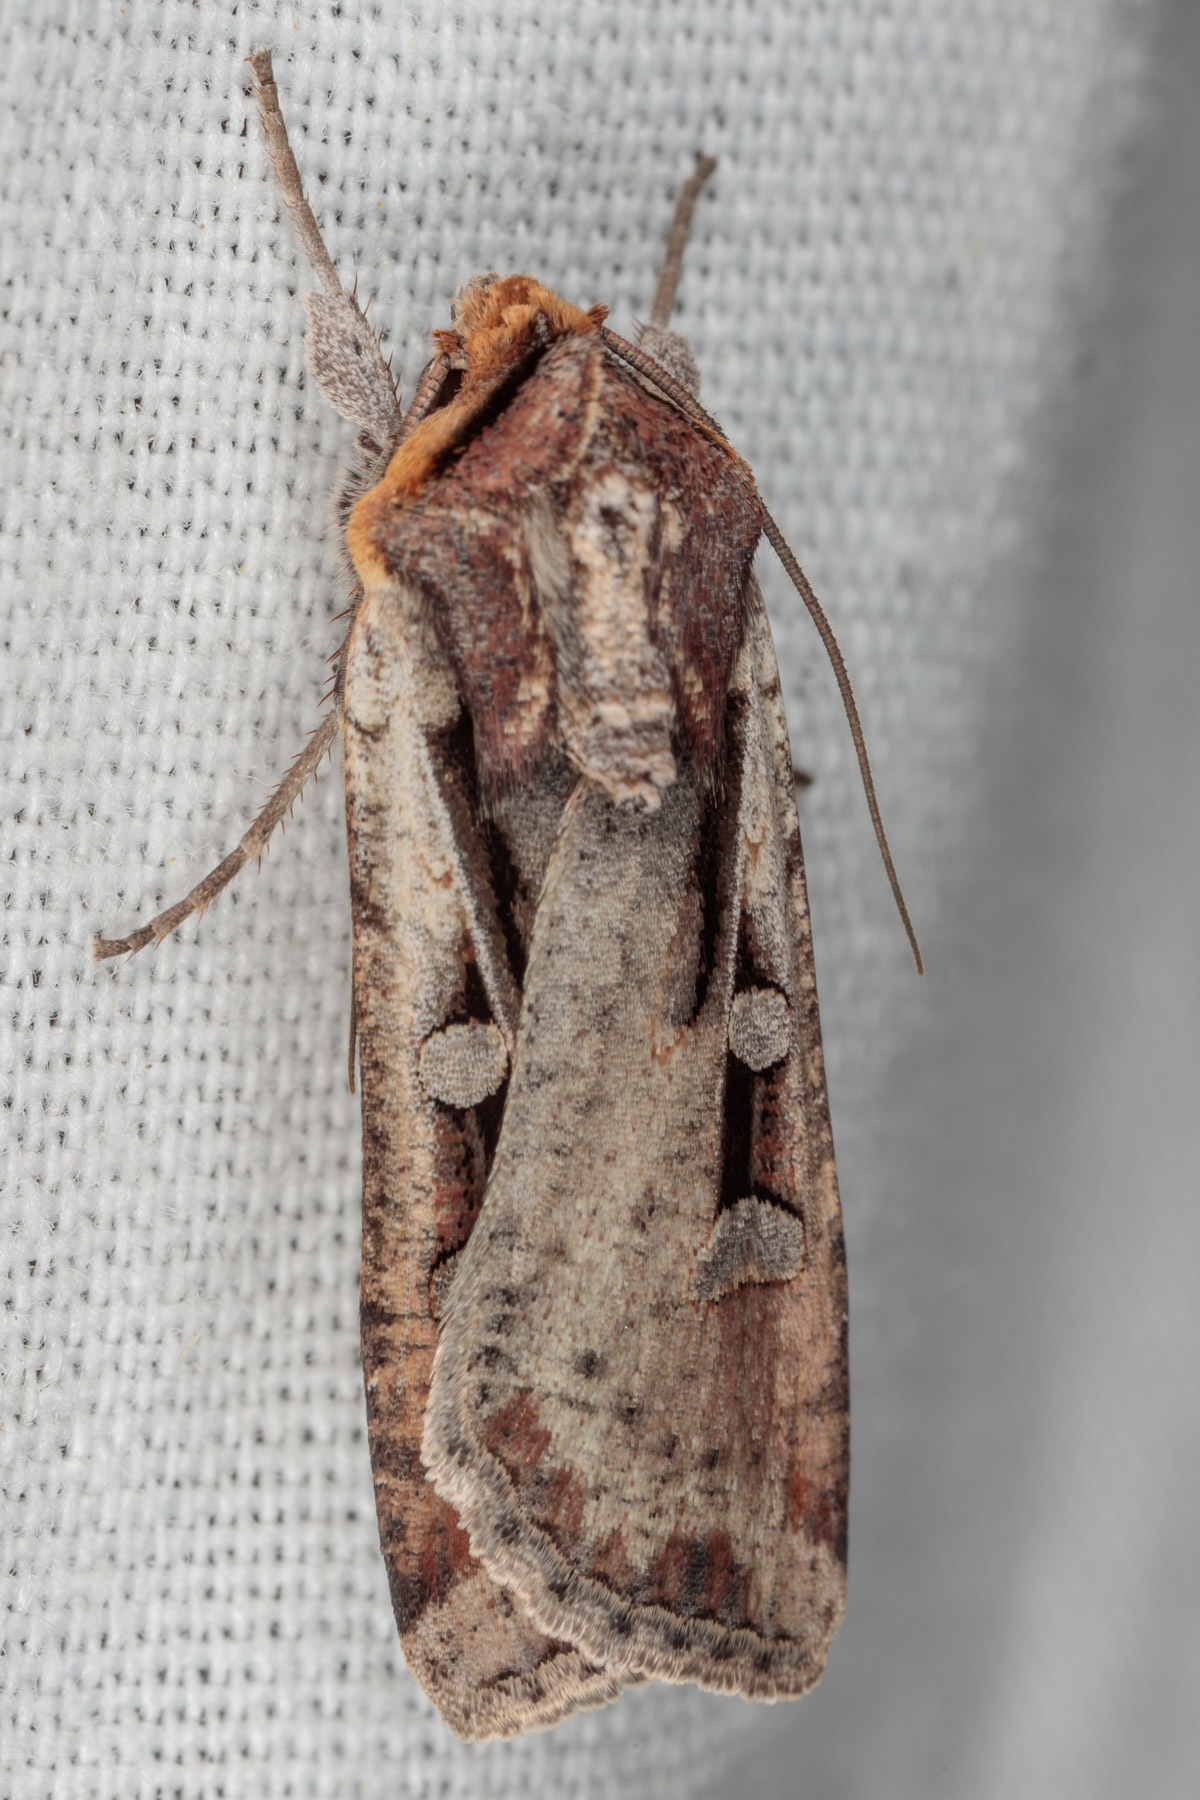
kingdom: Animalia
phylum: Arthropoda
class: Insecta
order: Lepidoptera
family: Noctuidae
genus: Hemieuxoa
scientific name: Hemieuxoa rudens
